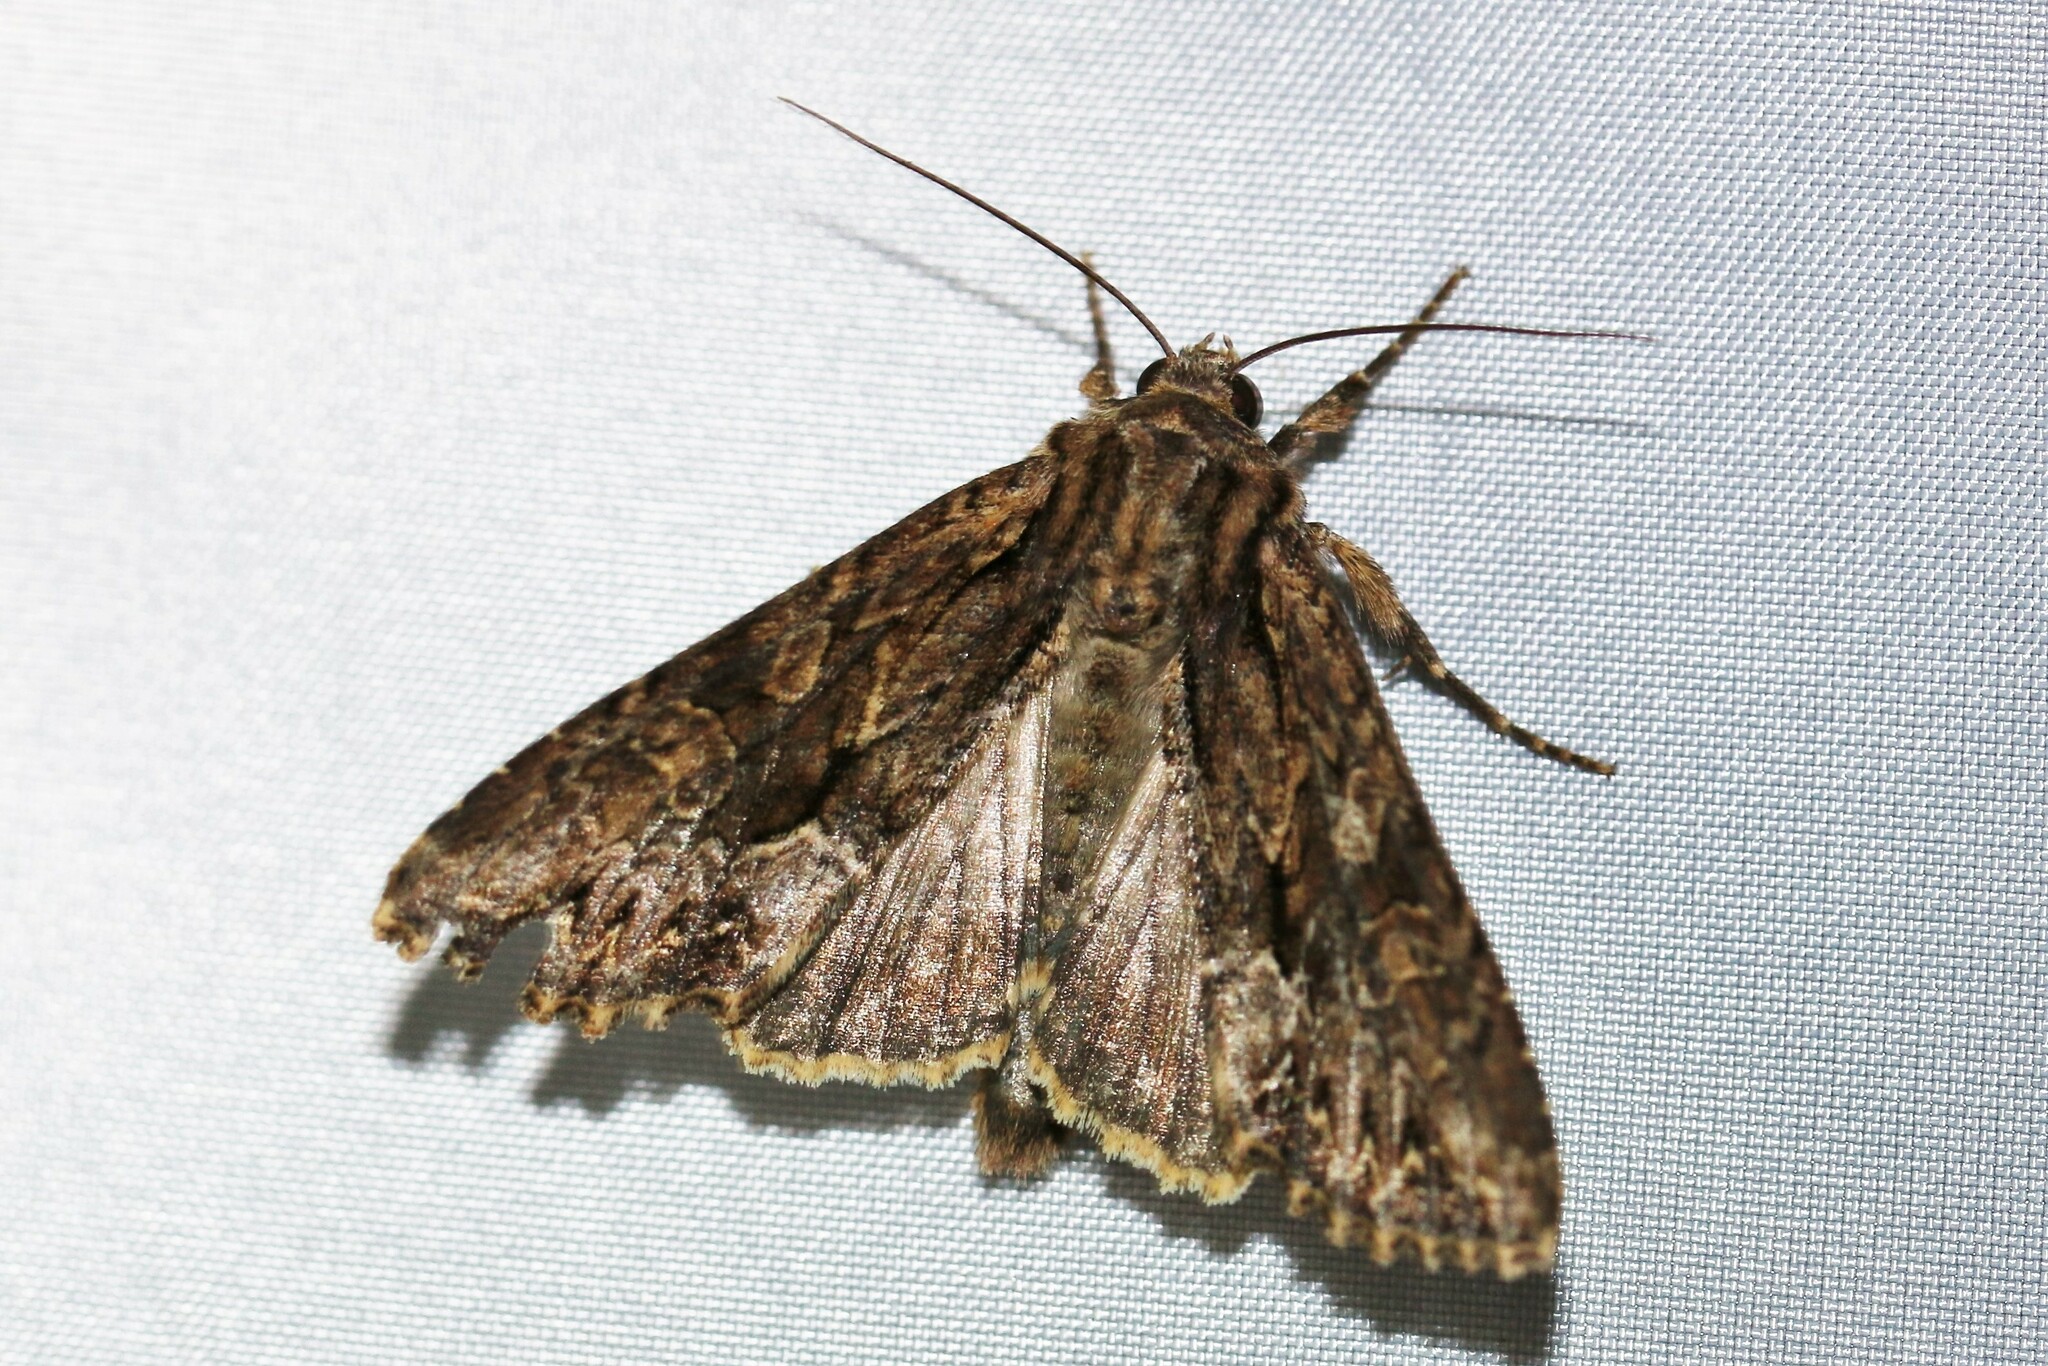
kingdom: Animalia
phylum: Arthropoda
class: Insecta
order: Lepidoptera
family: Noctuidae
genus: Apamea
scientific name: Apamea monoglypha
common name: Dark arches
